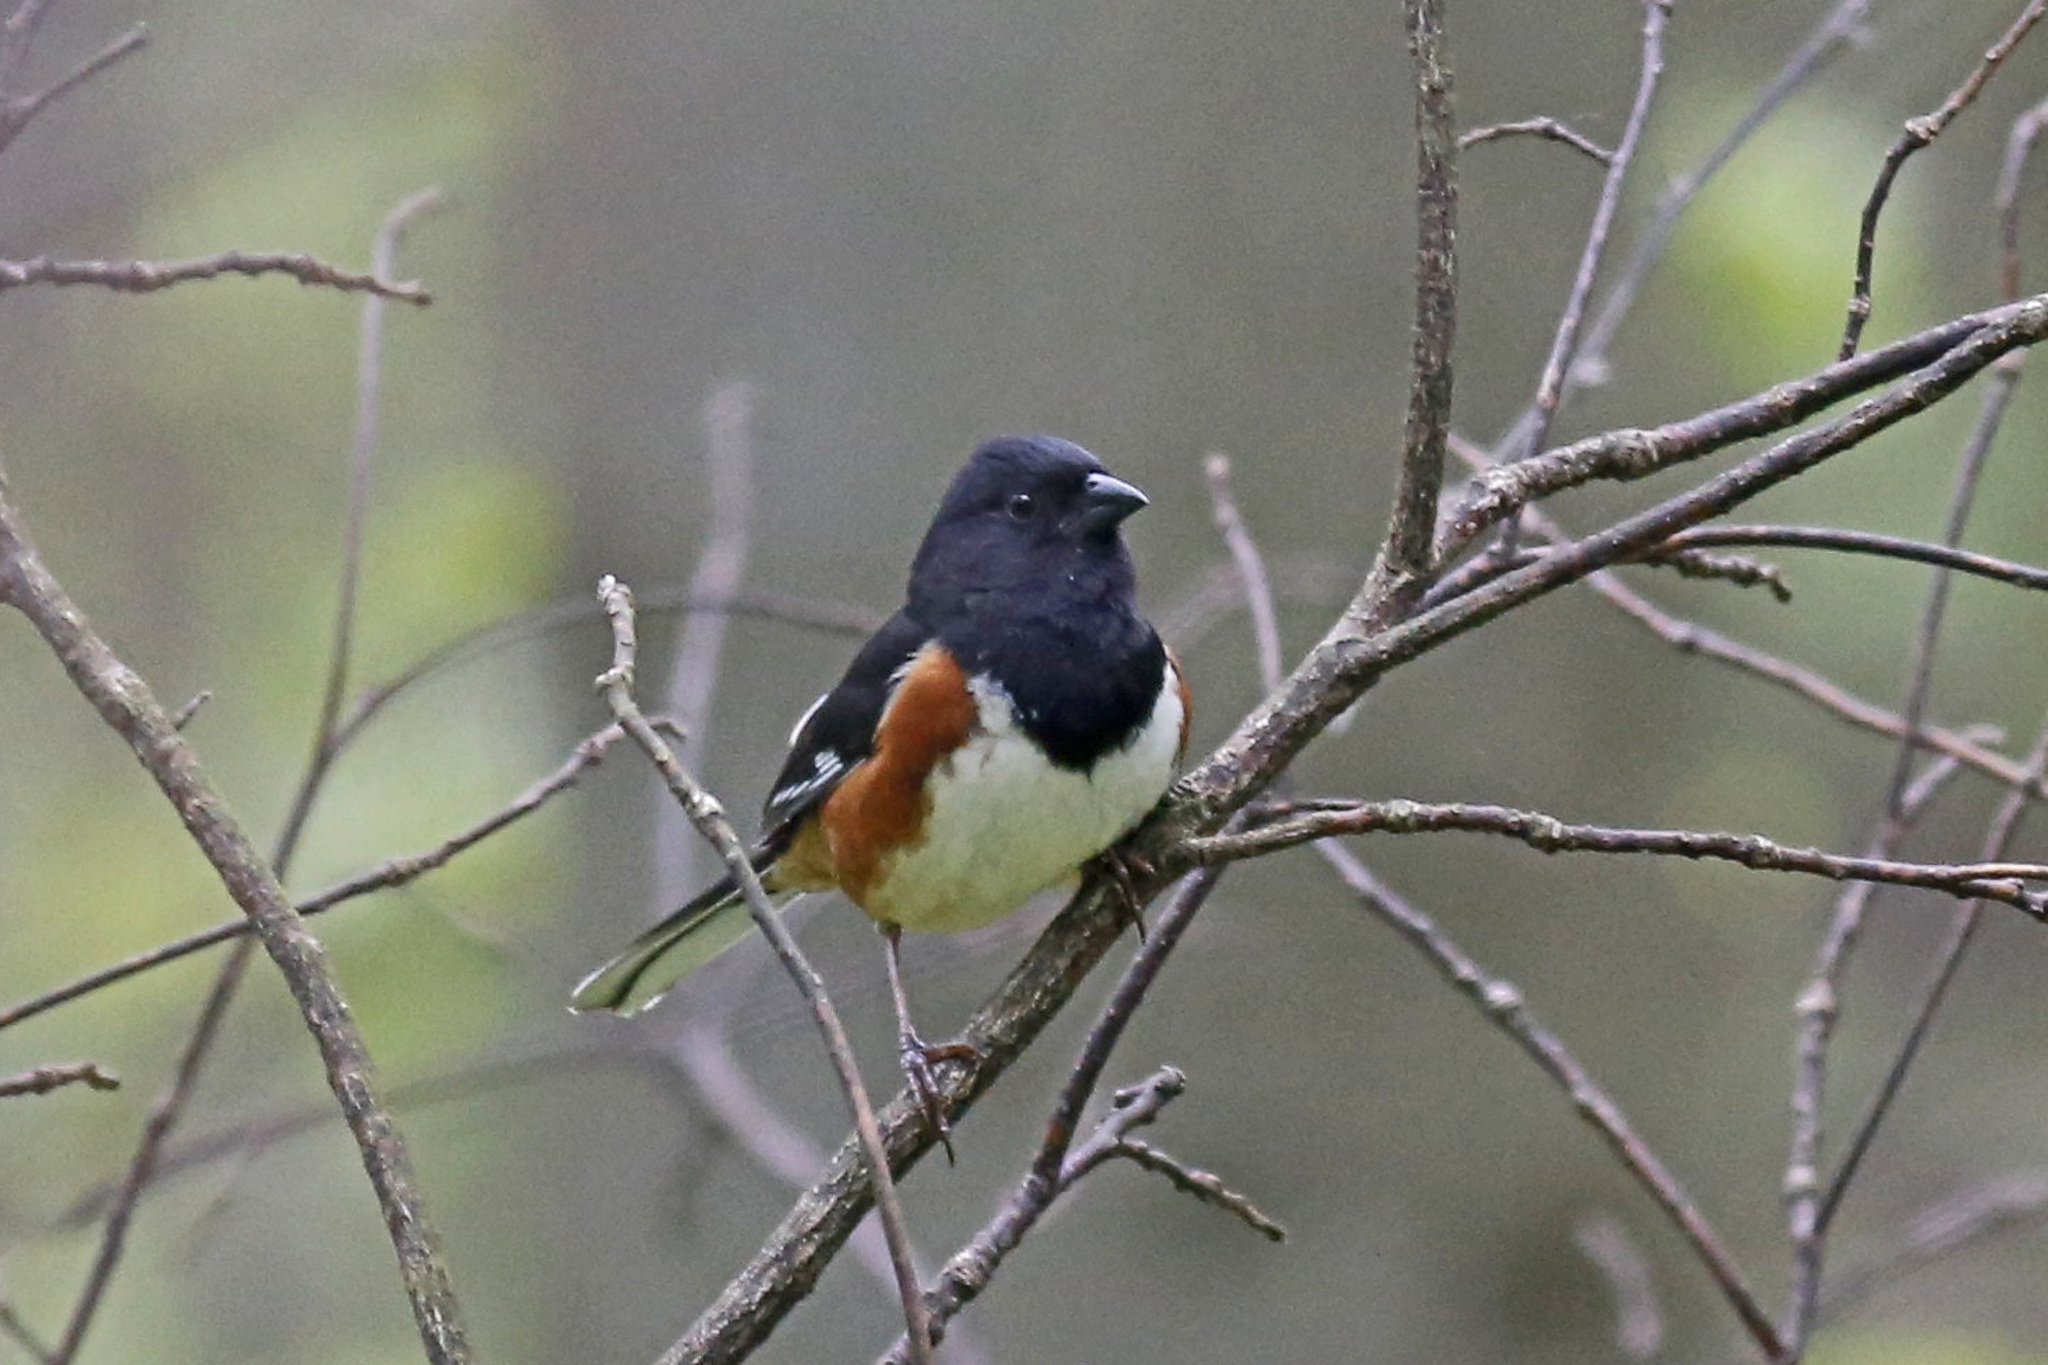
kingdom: Animalia
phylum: Chordata
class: Aves
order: Passeriformes
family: Passerellidae
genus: Pipilo
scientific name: Pipilo erythrophthalmus
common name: Eastern towhee
